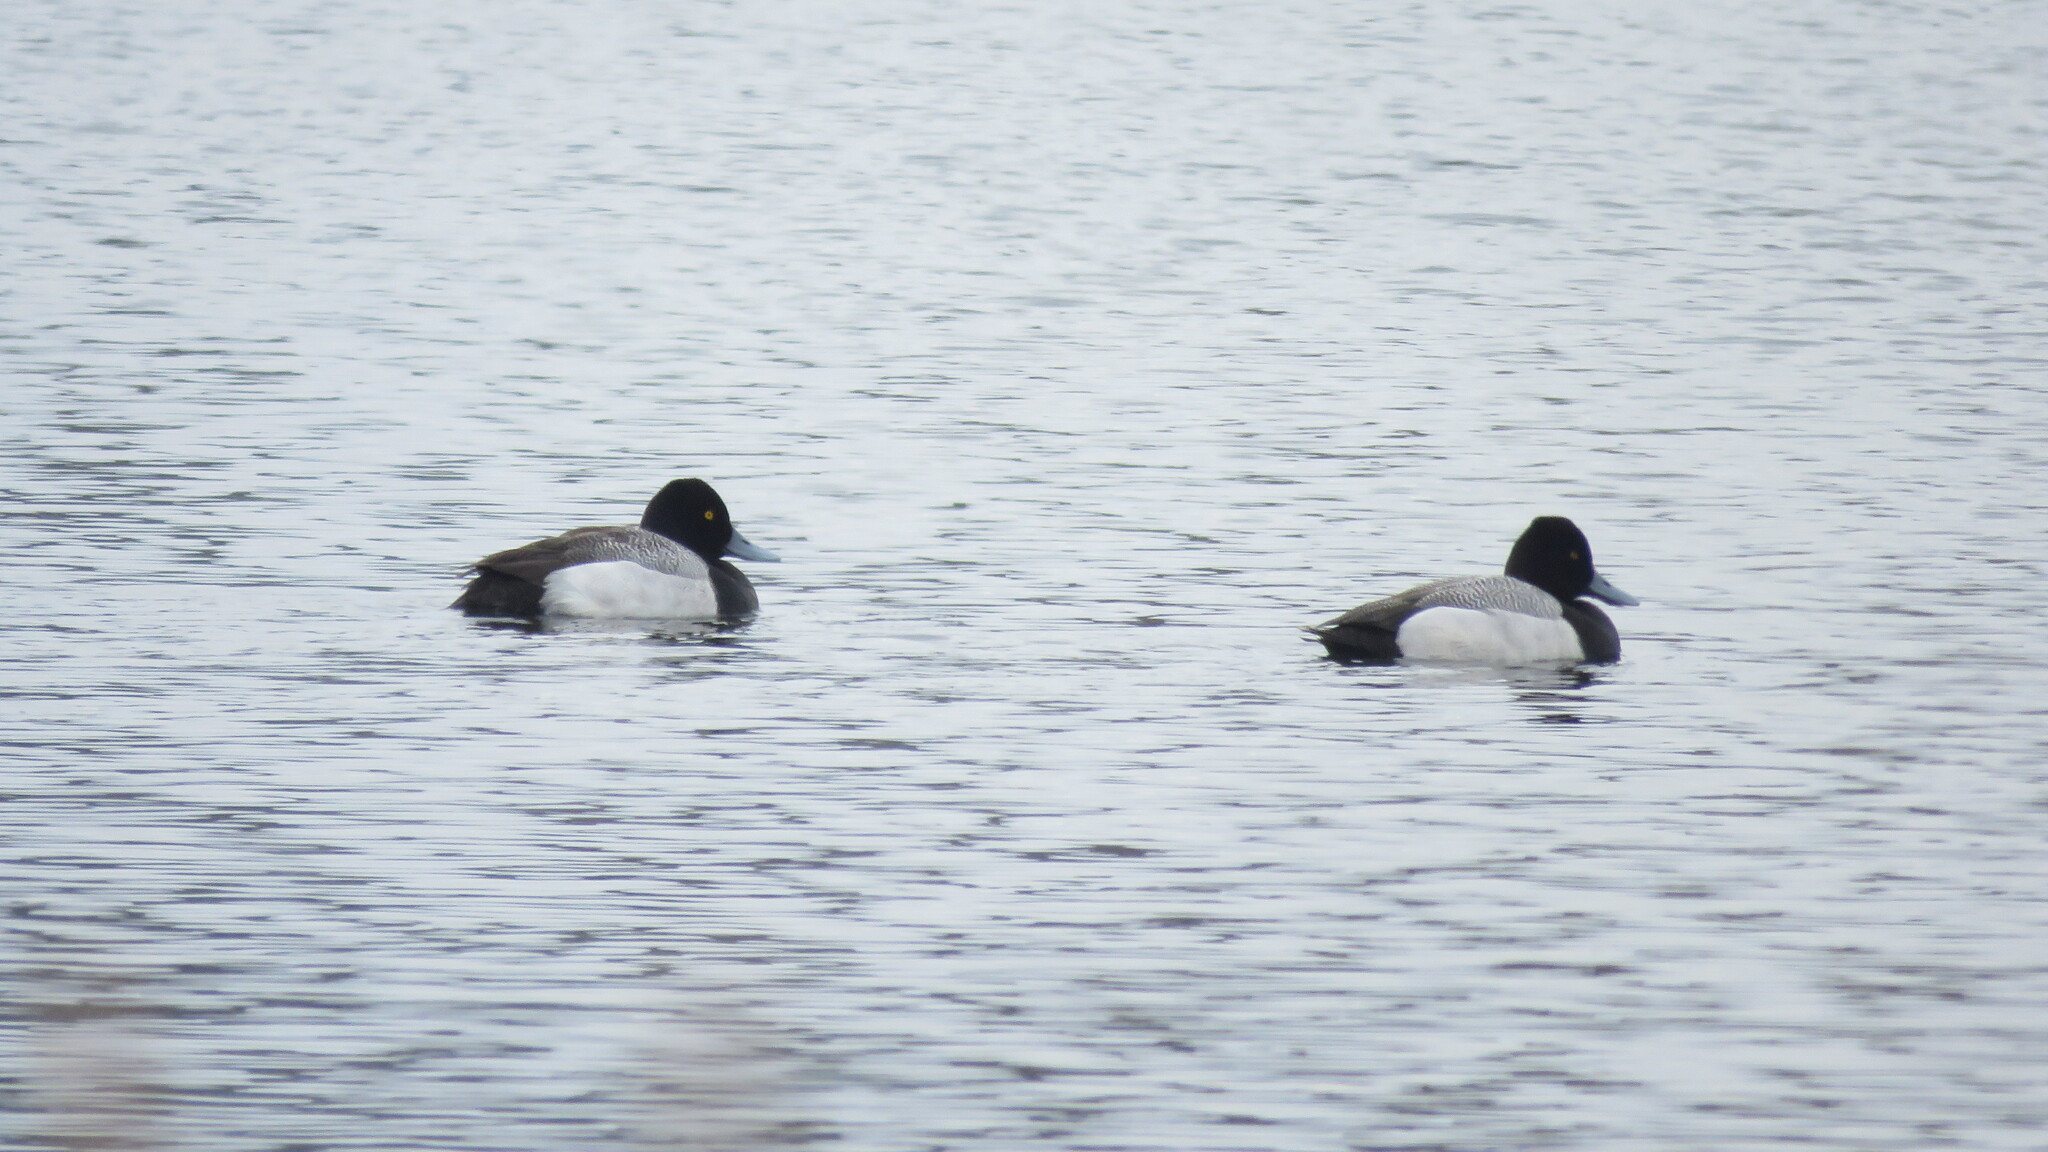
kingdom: Animalia
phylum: Chordata
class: Aves
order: Anseriformes
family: Anatidae
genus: Aythya
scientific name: Aythya affinis
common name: Lesser scaup
